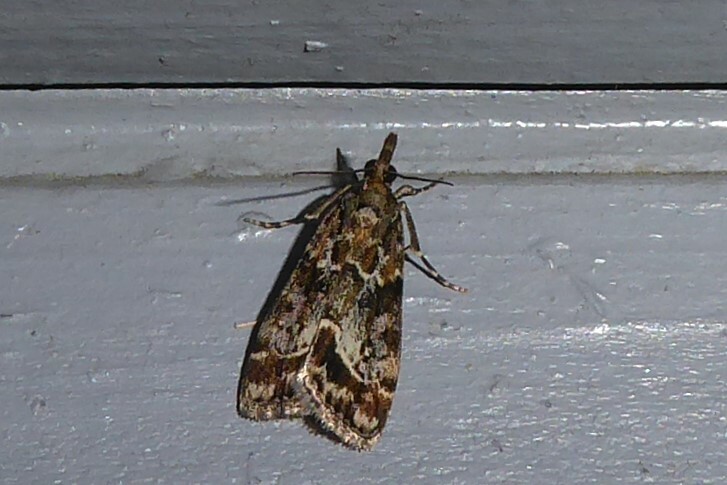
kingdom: Animalia
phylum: Arthropoda
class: Insecta
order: Lepidoptera
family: Crambidae
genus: Eudonia
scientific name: Eudonia legnota
